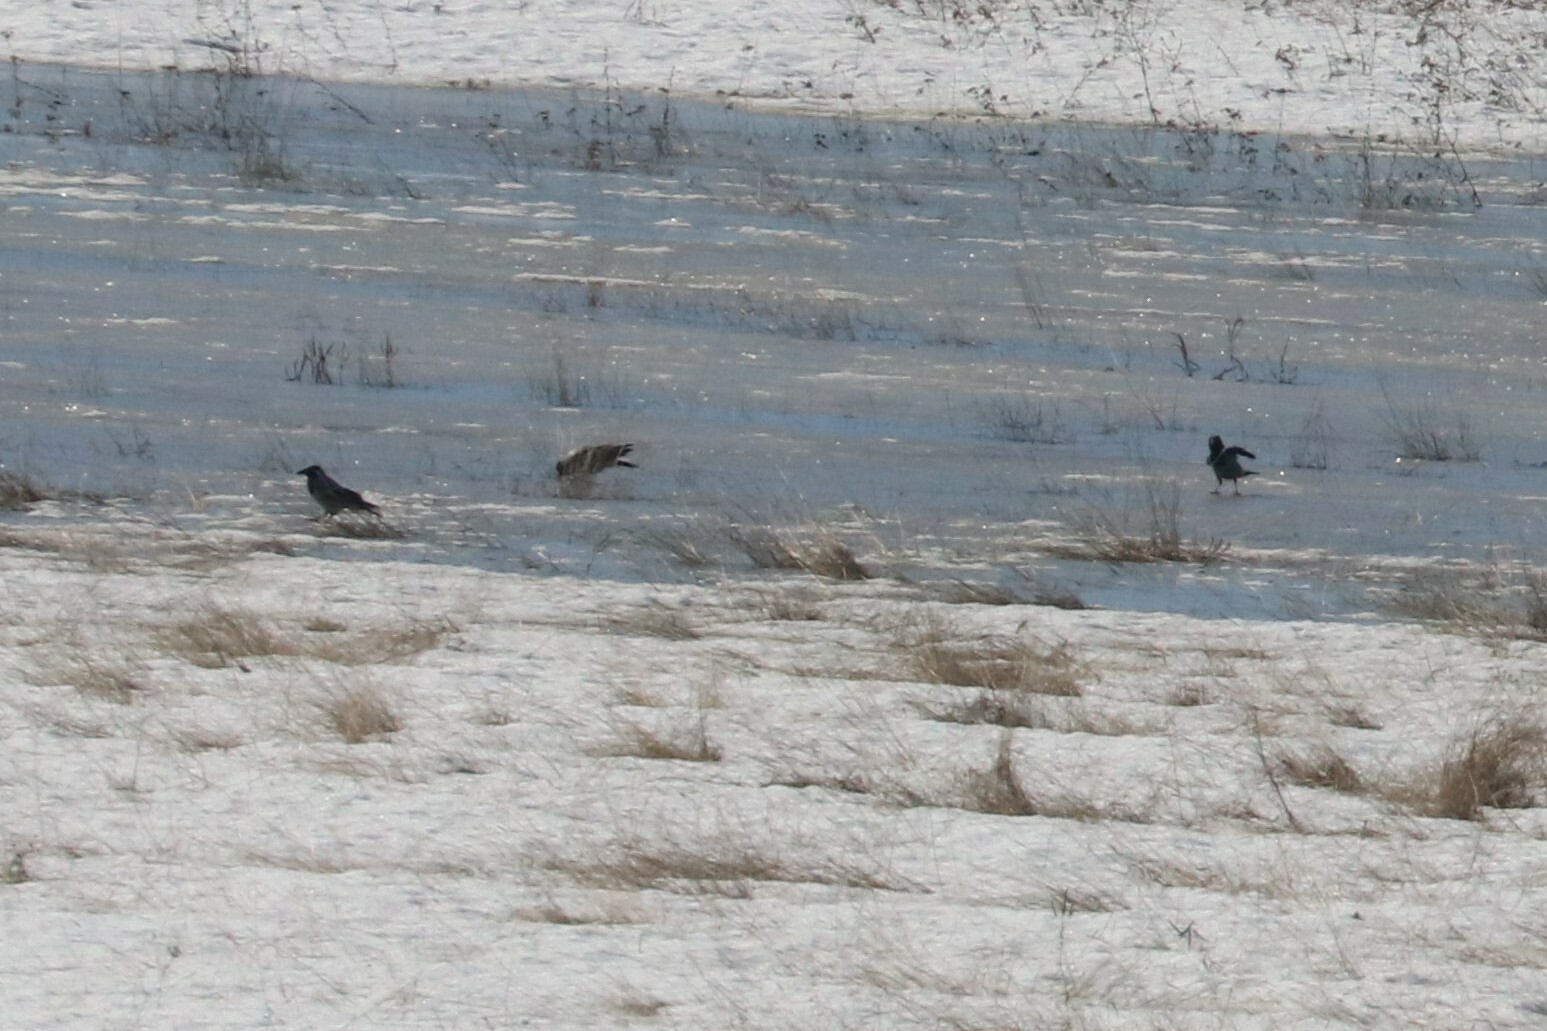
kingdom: Animalia
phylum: Chordata
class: Aves
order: Passeriformes
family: Corvidae
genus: Corvus
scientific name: Corvus cornix
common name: Hooded crow
